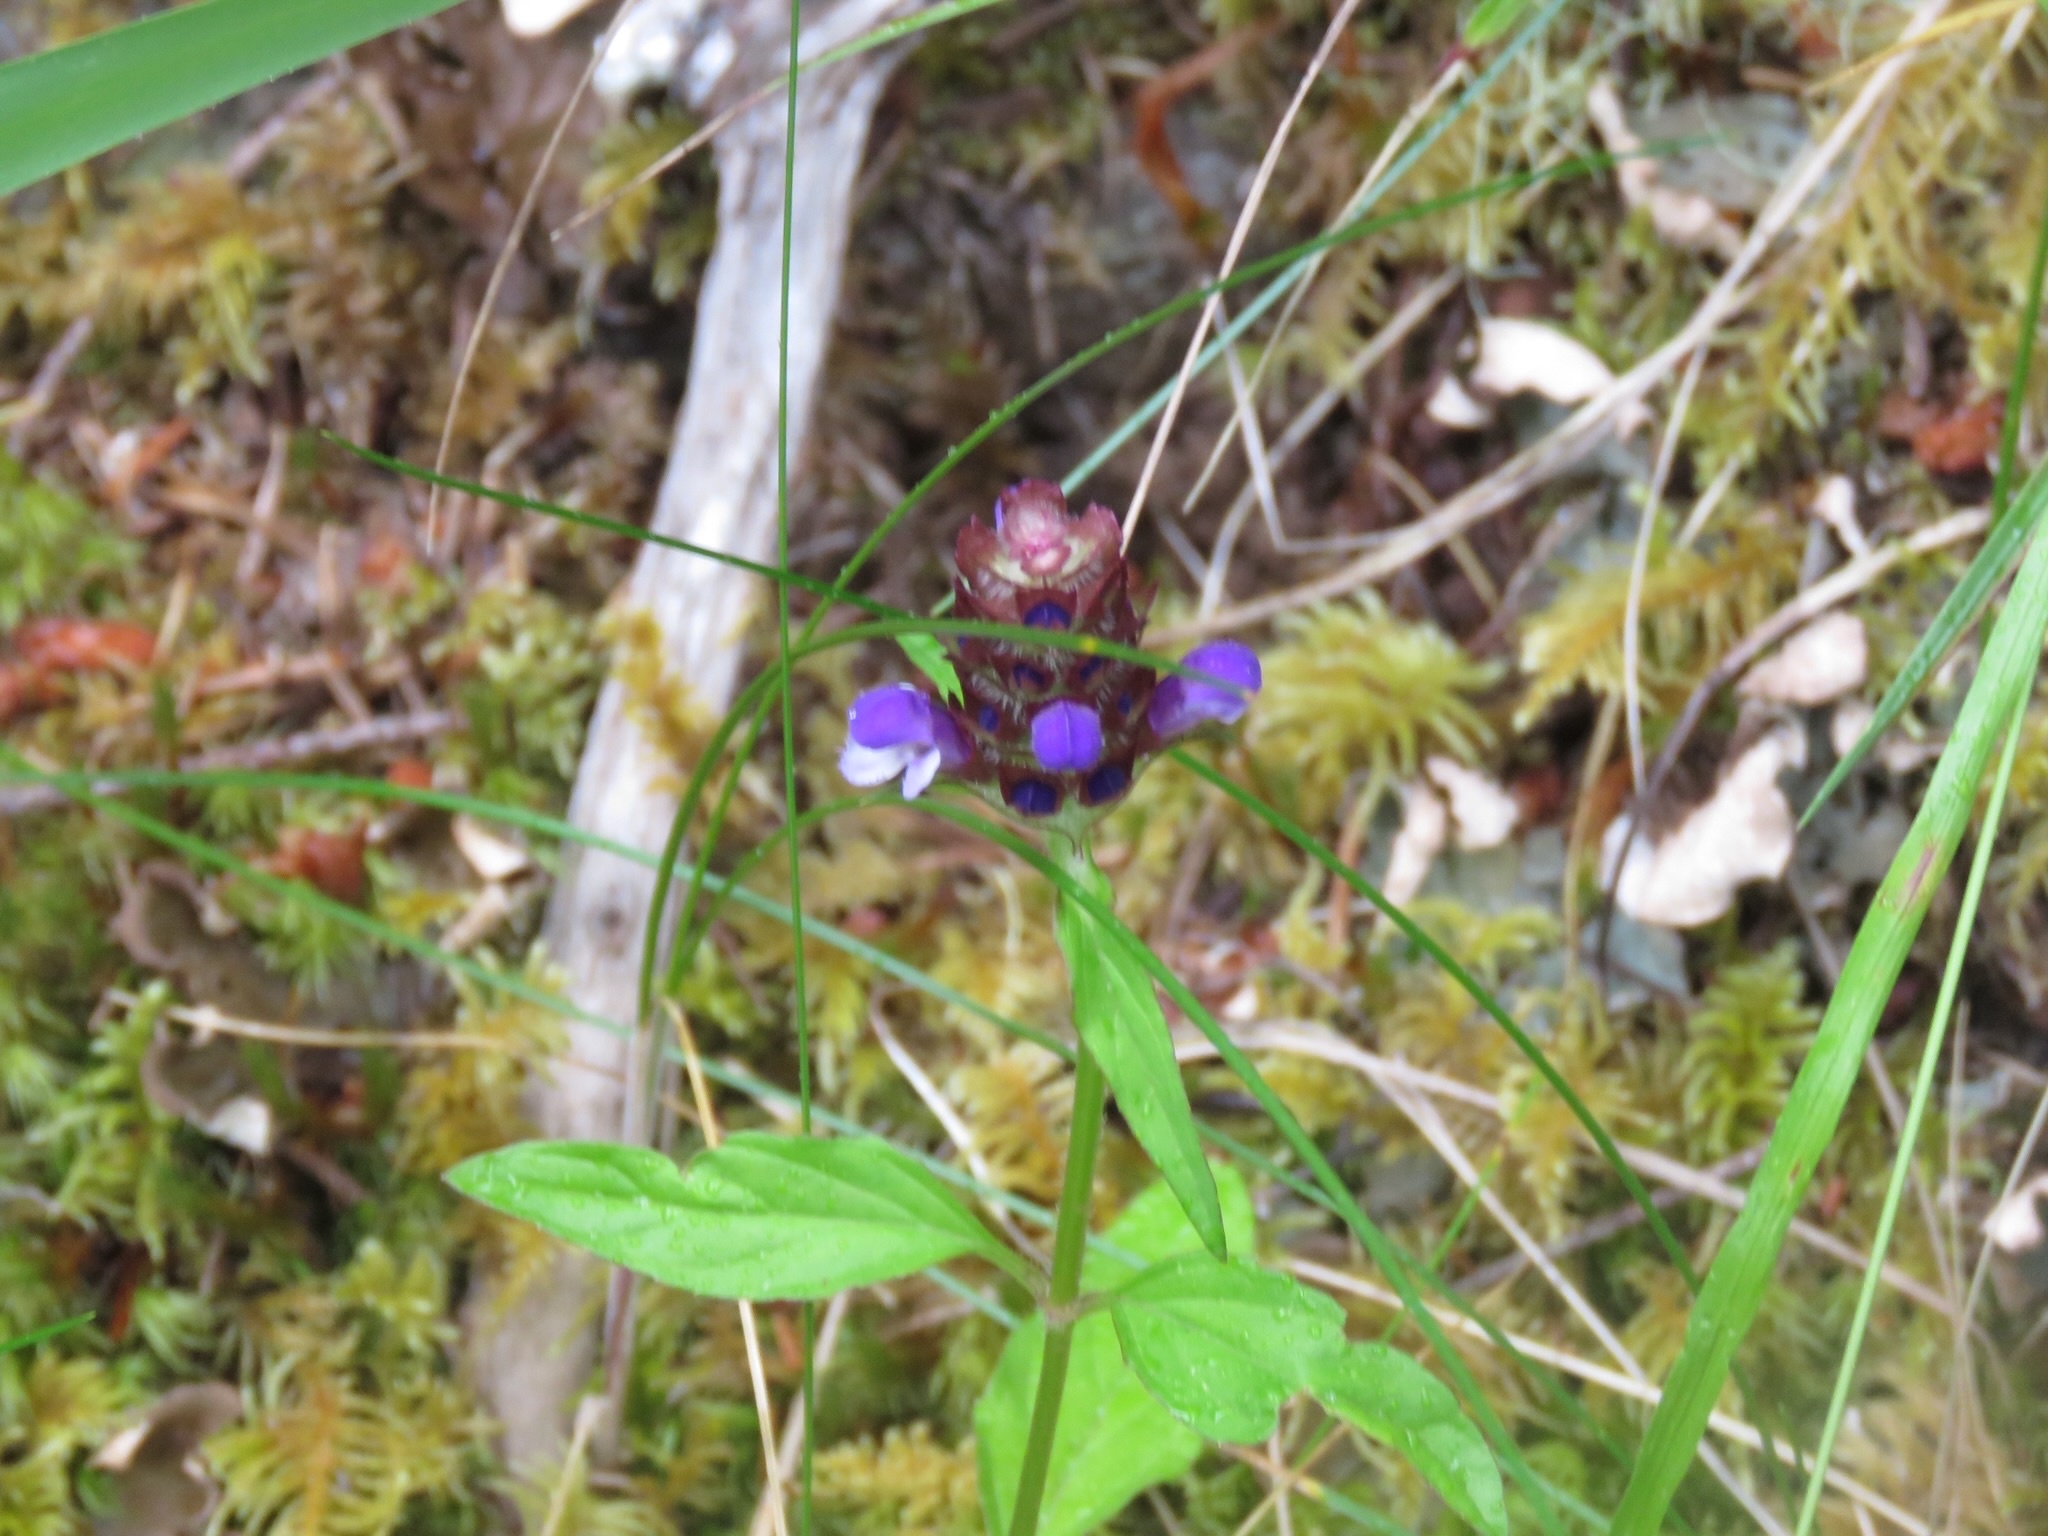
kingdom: Plantae
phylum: Tracheophyta
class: Magnoliopsida
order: Lamiales
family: Lamiaceae
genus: Prunella
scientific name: Prunella vulgaris
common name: Heal-all
